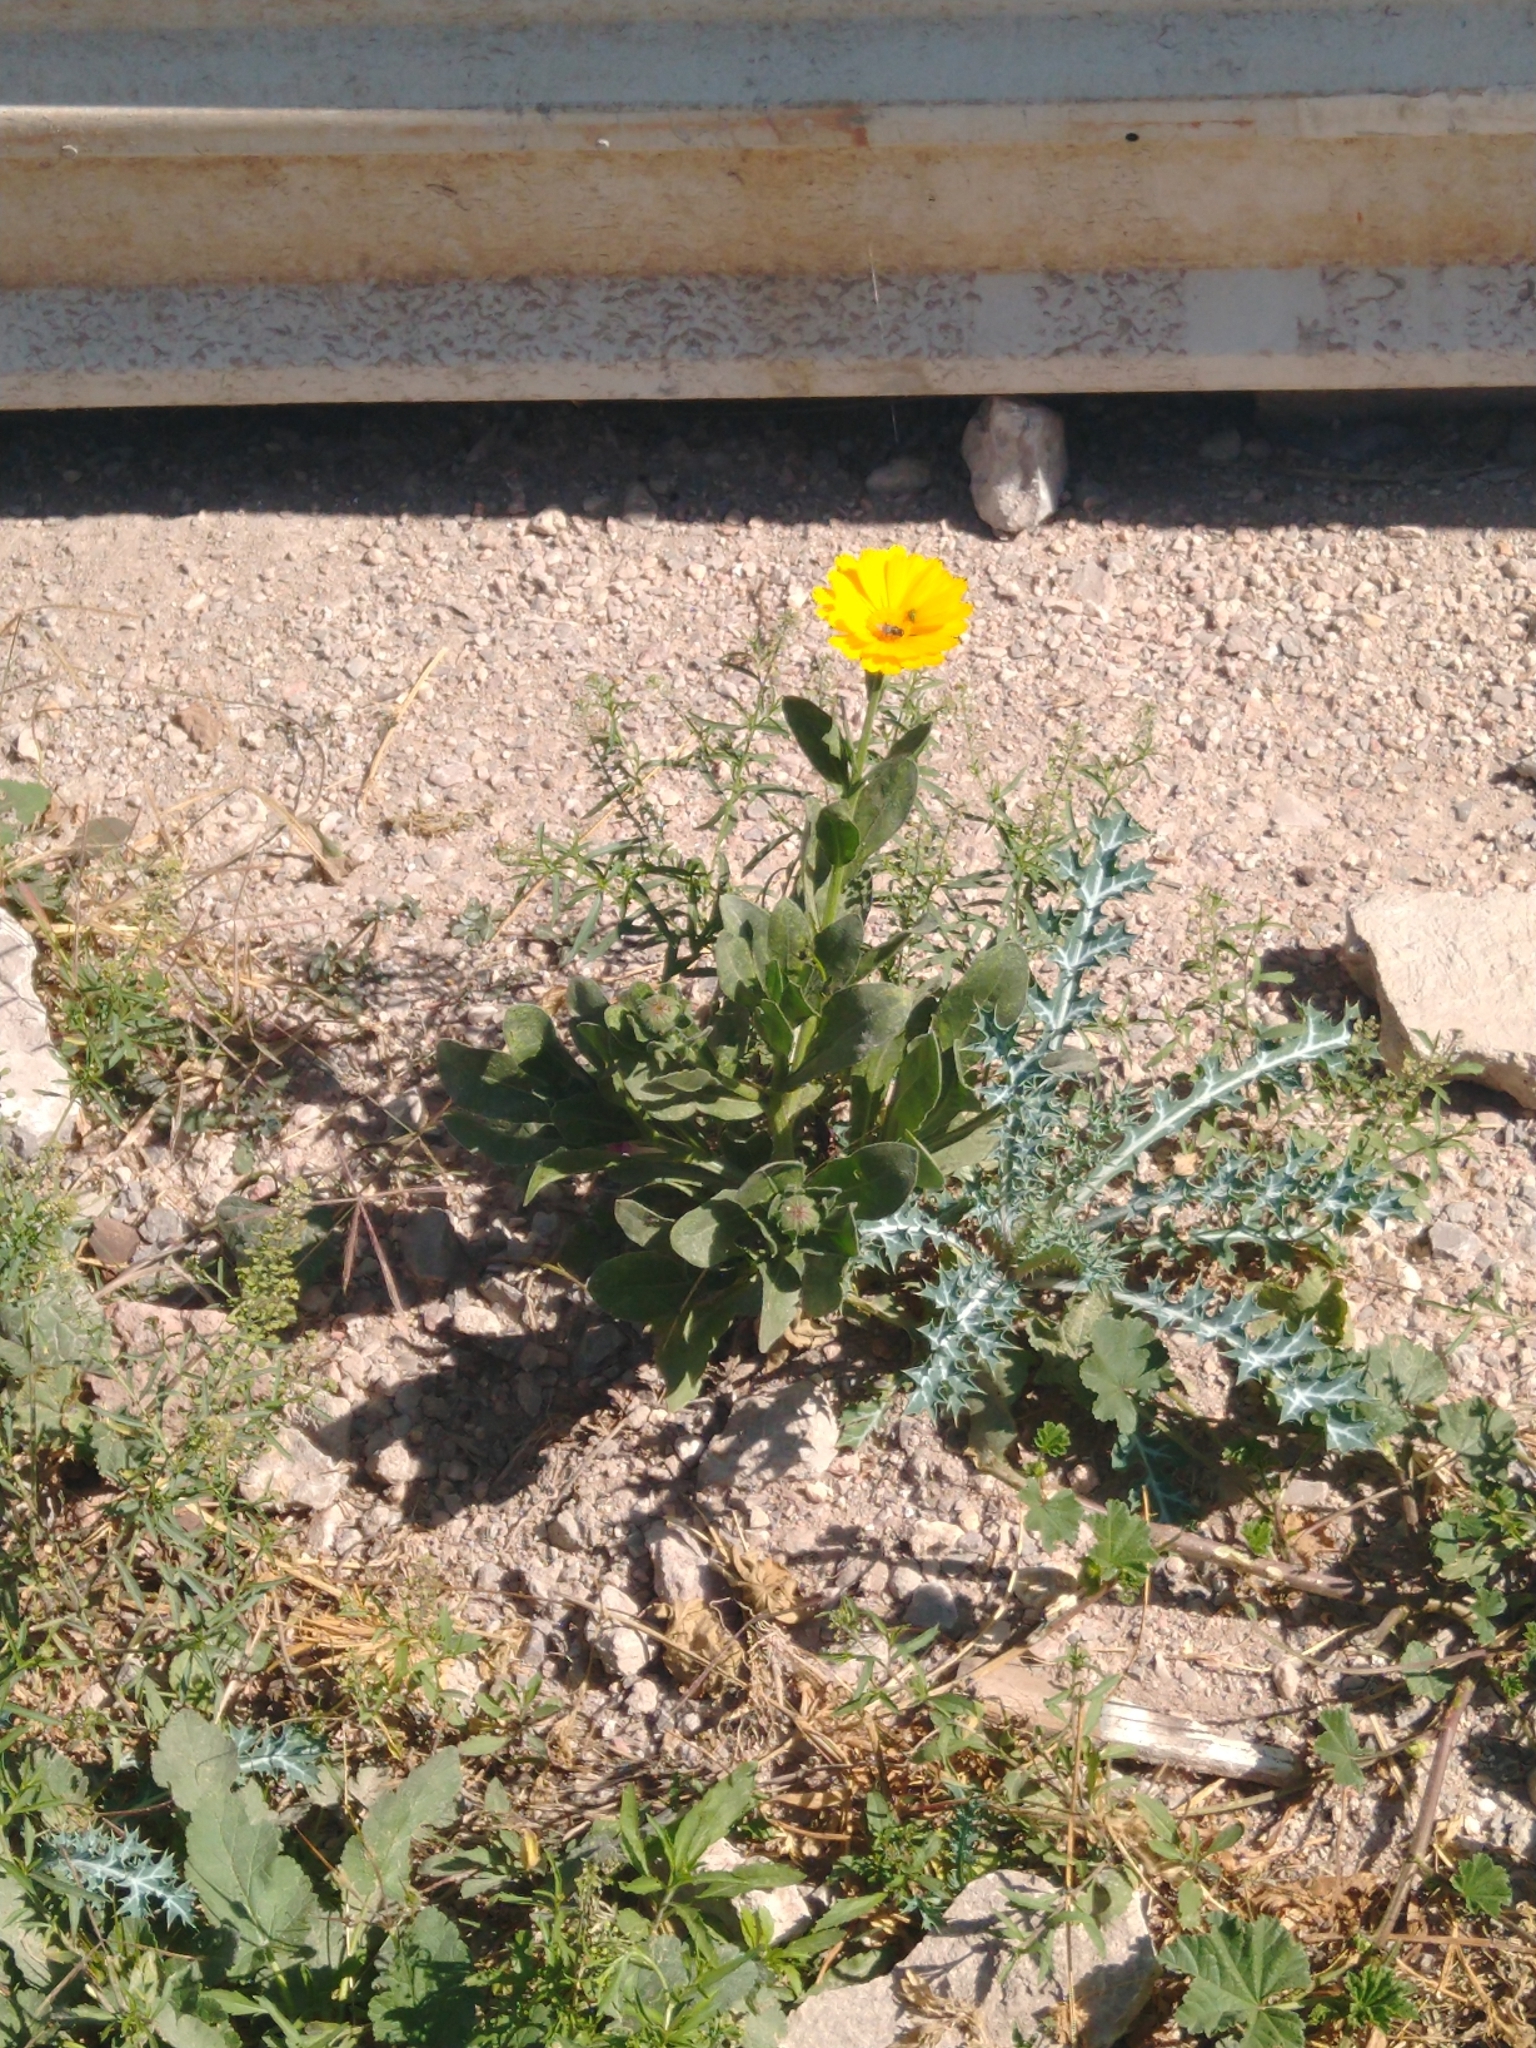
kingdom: Plantae
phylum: Tracheophyta
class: Magnoliopsida
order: Asterales
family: Asteraceae
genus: Calendula
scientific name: Calendula officinalis
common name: Pot marigold
